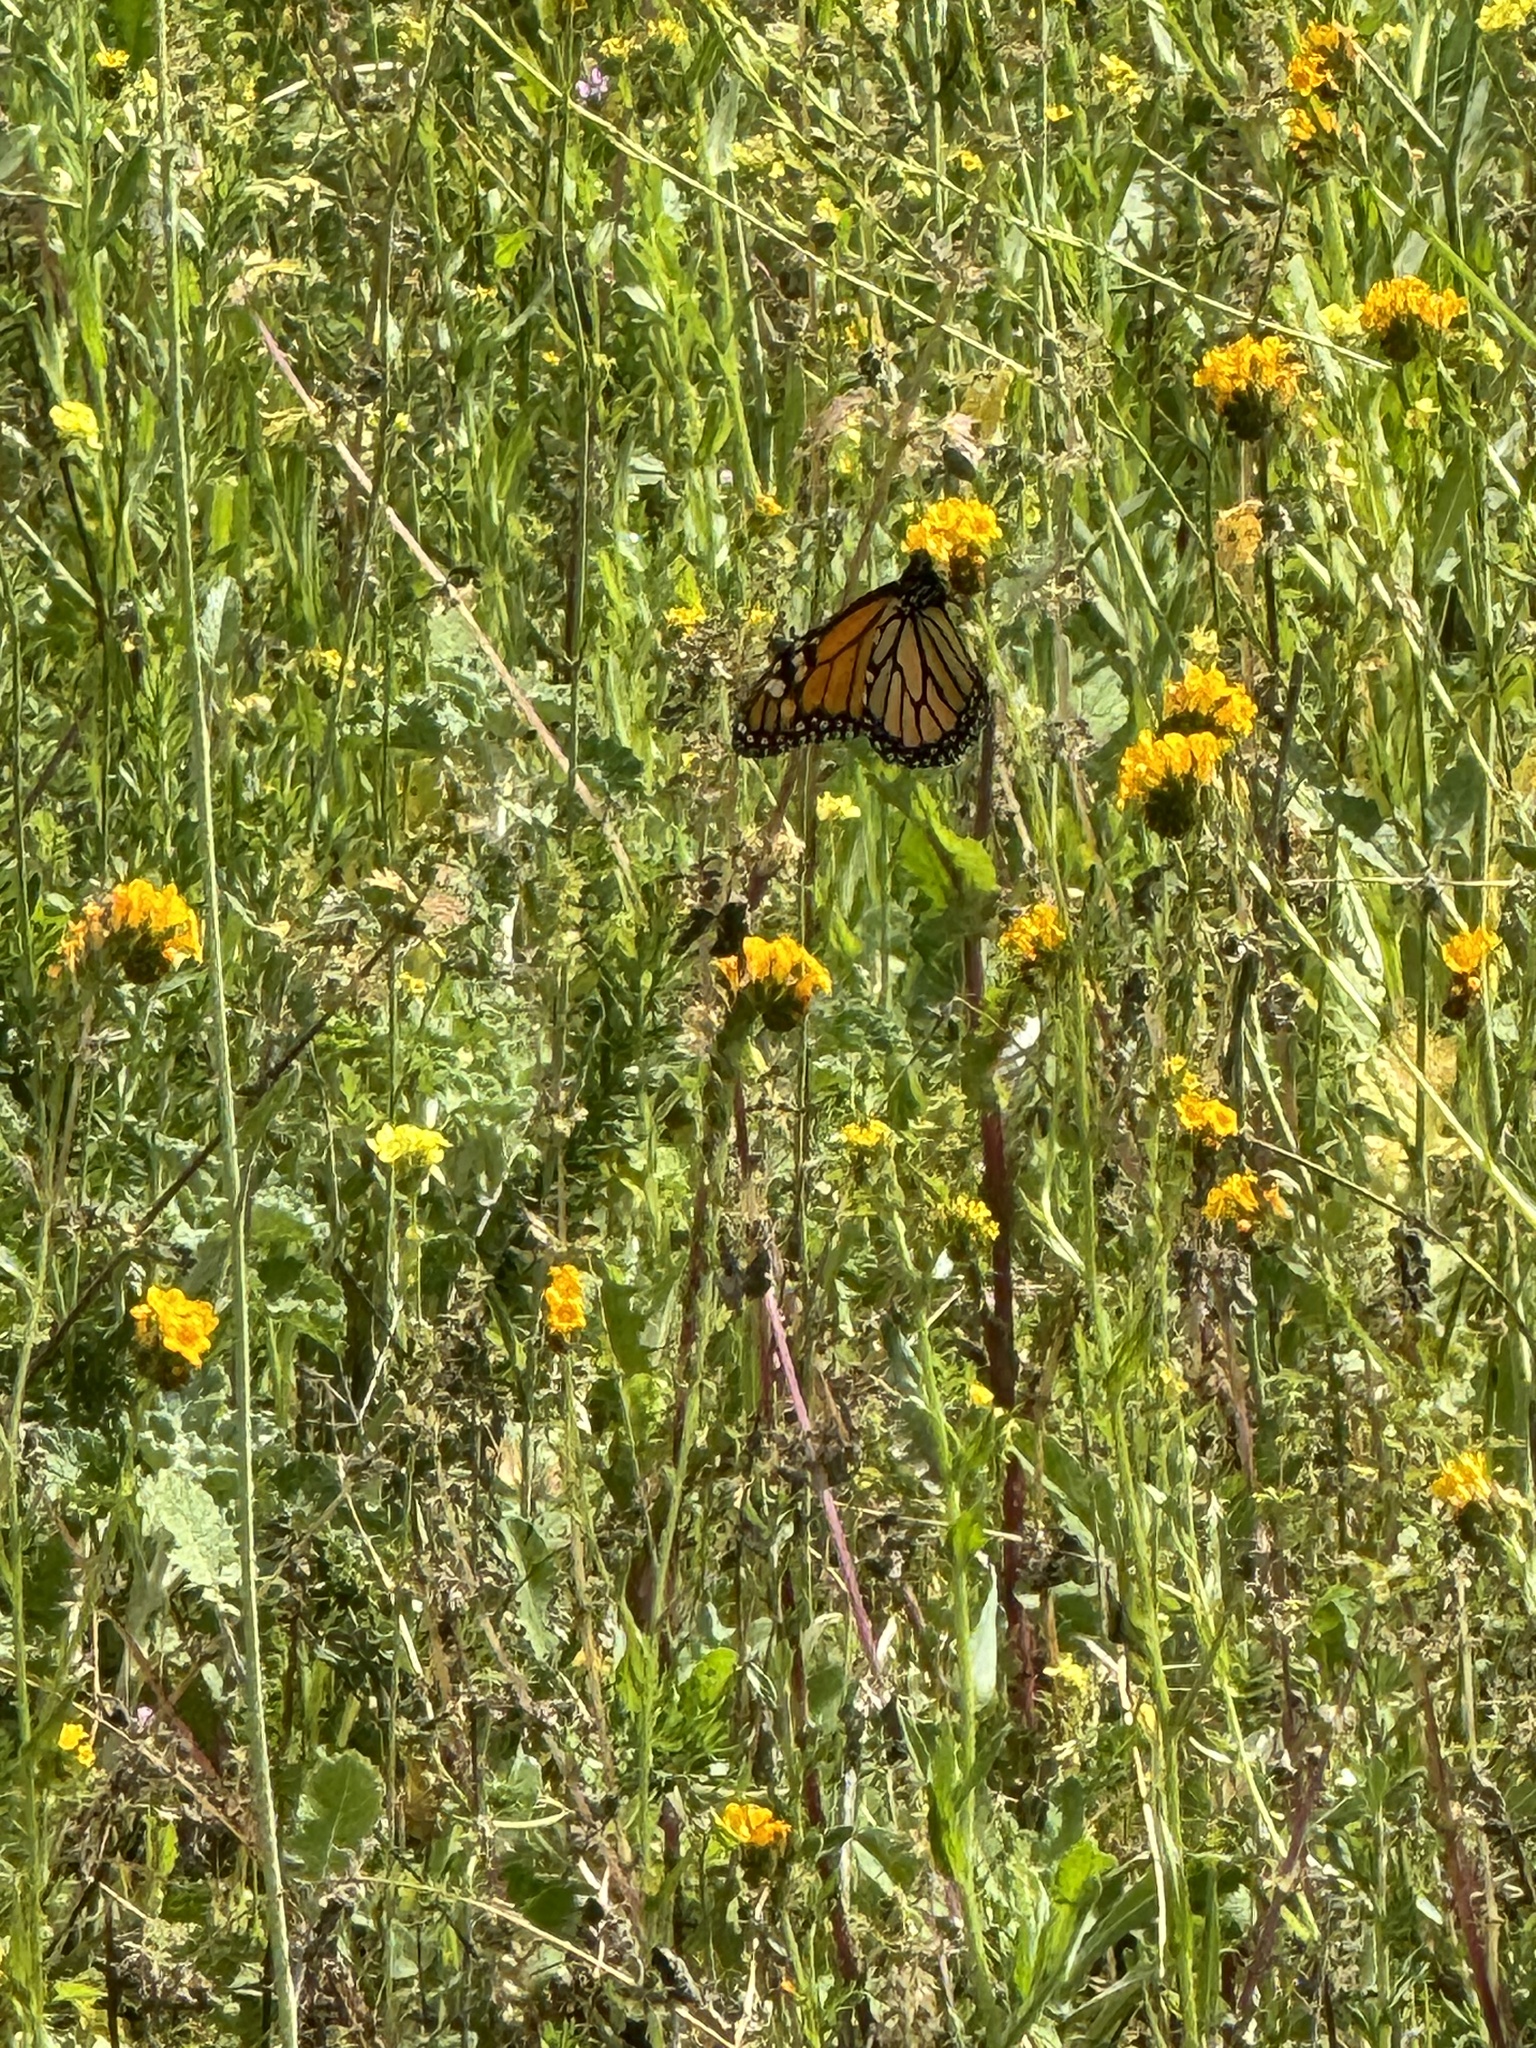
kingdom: Animalia
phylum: Arthropoda
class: Insecta
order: Lepidoptera
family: Nymphalidae
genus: Danaus
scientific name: Danaus plexippus
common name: Monarch
